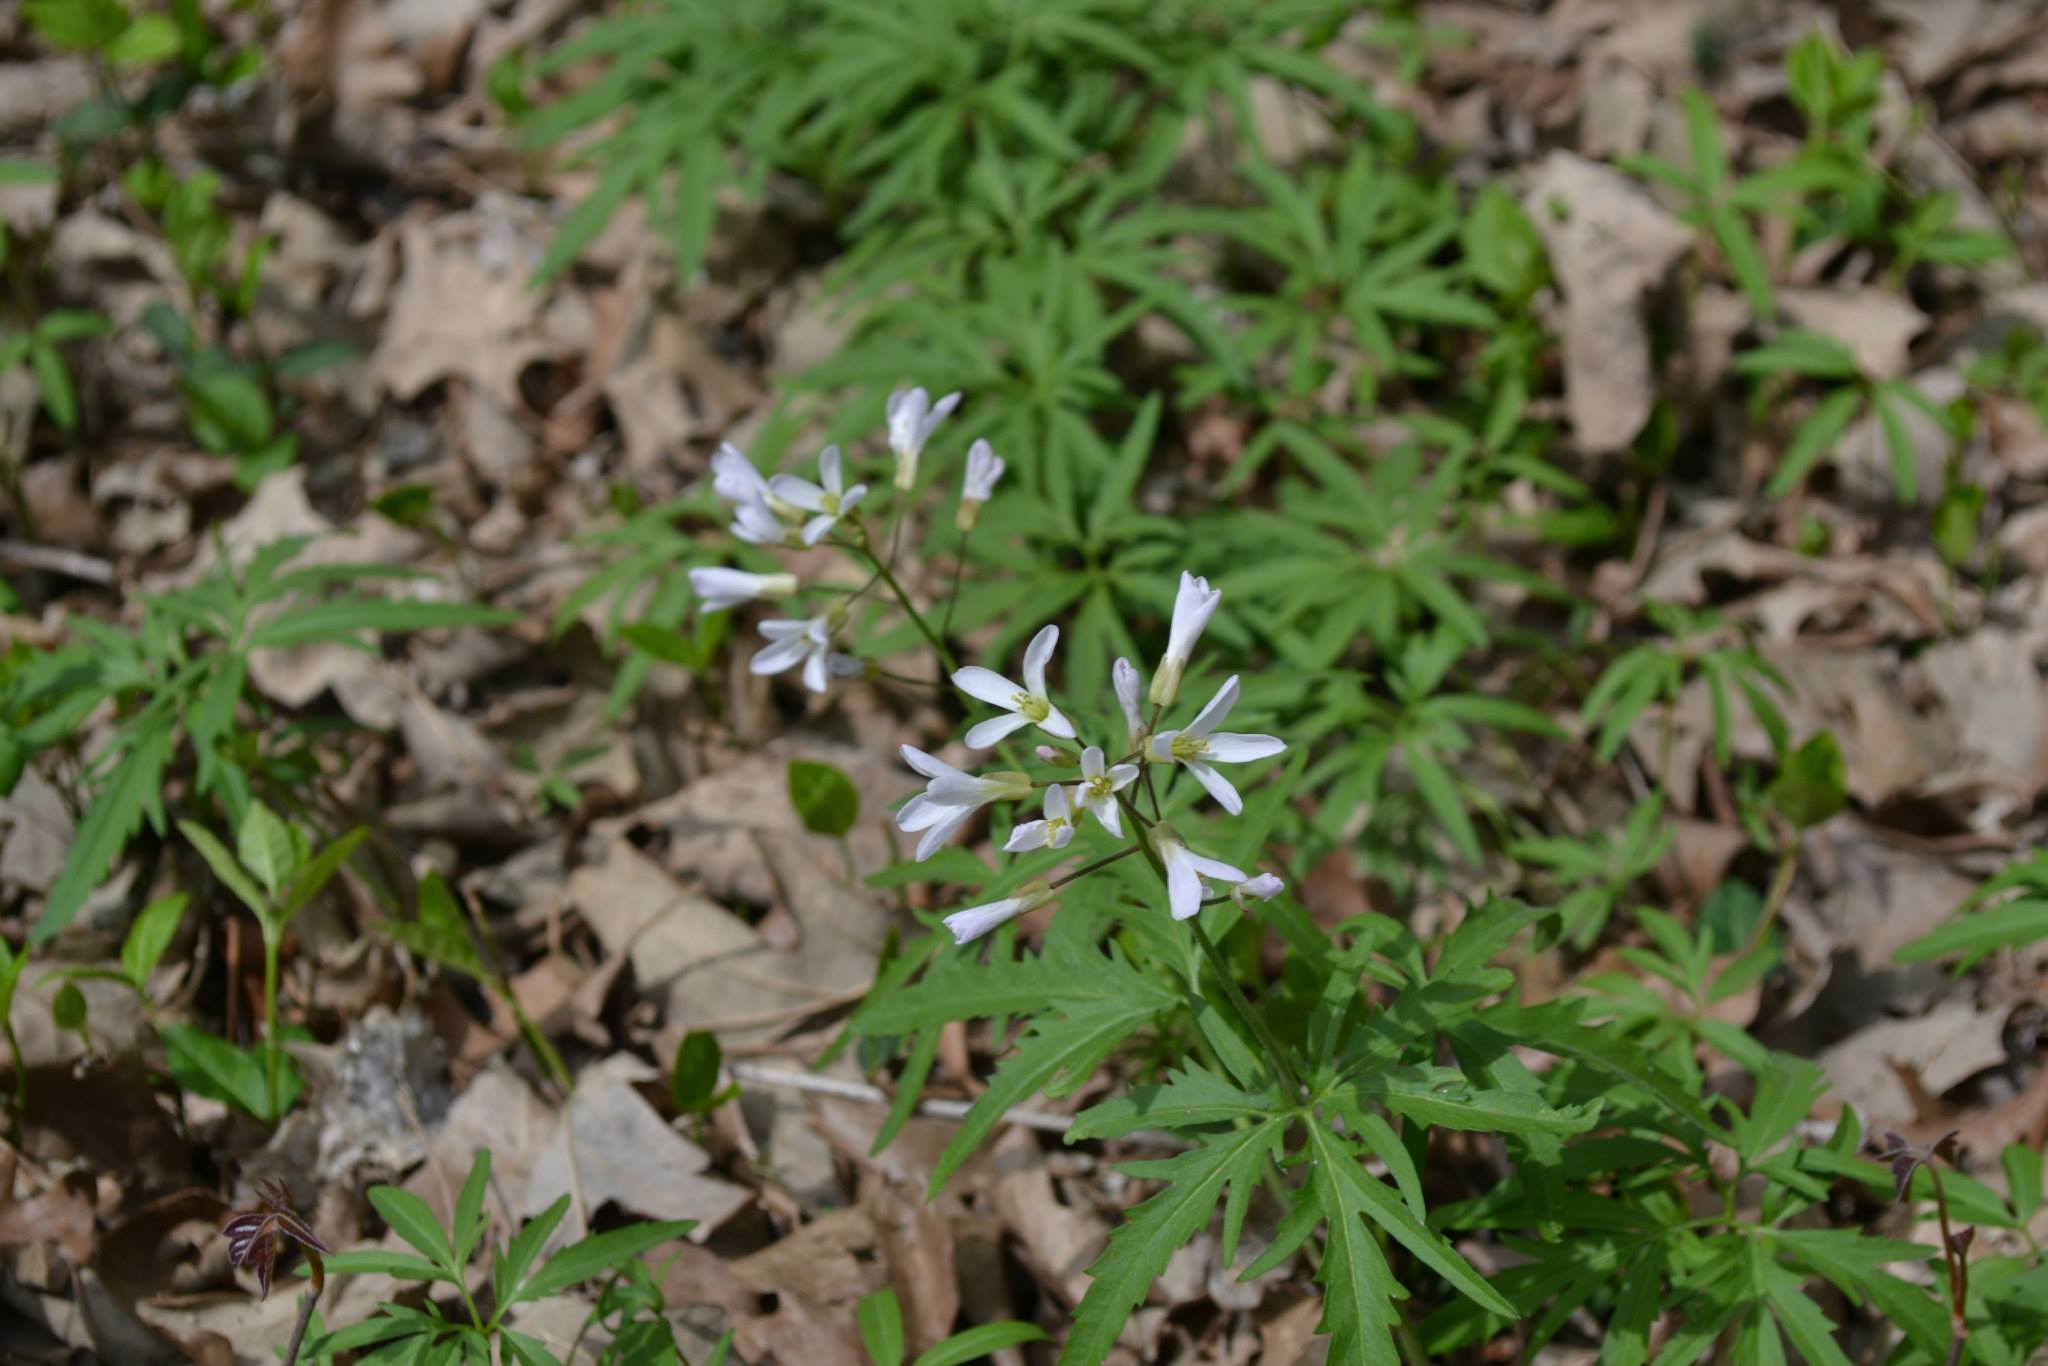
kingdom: Plantae
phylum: Tracheophyta
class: Magnoliopsida
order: Brassicales
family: Brassicaceae
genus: Cardamine
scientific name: Cardamine concatenata
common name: Cut-leaf toothcup
